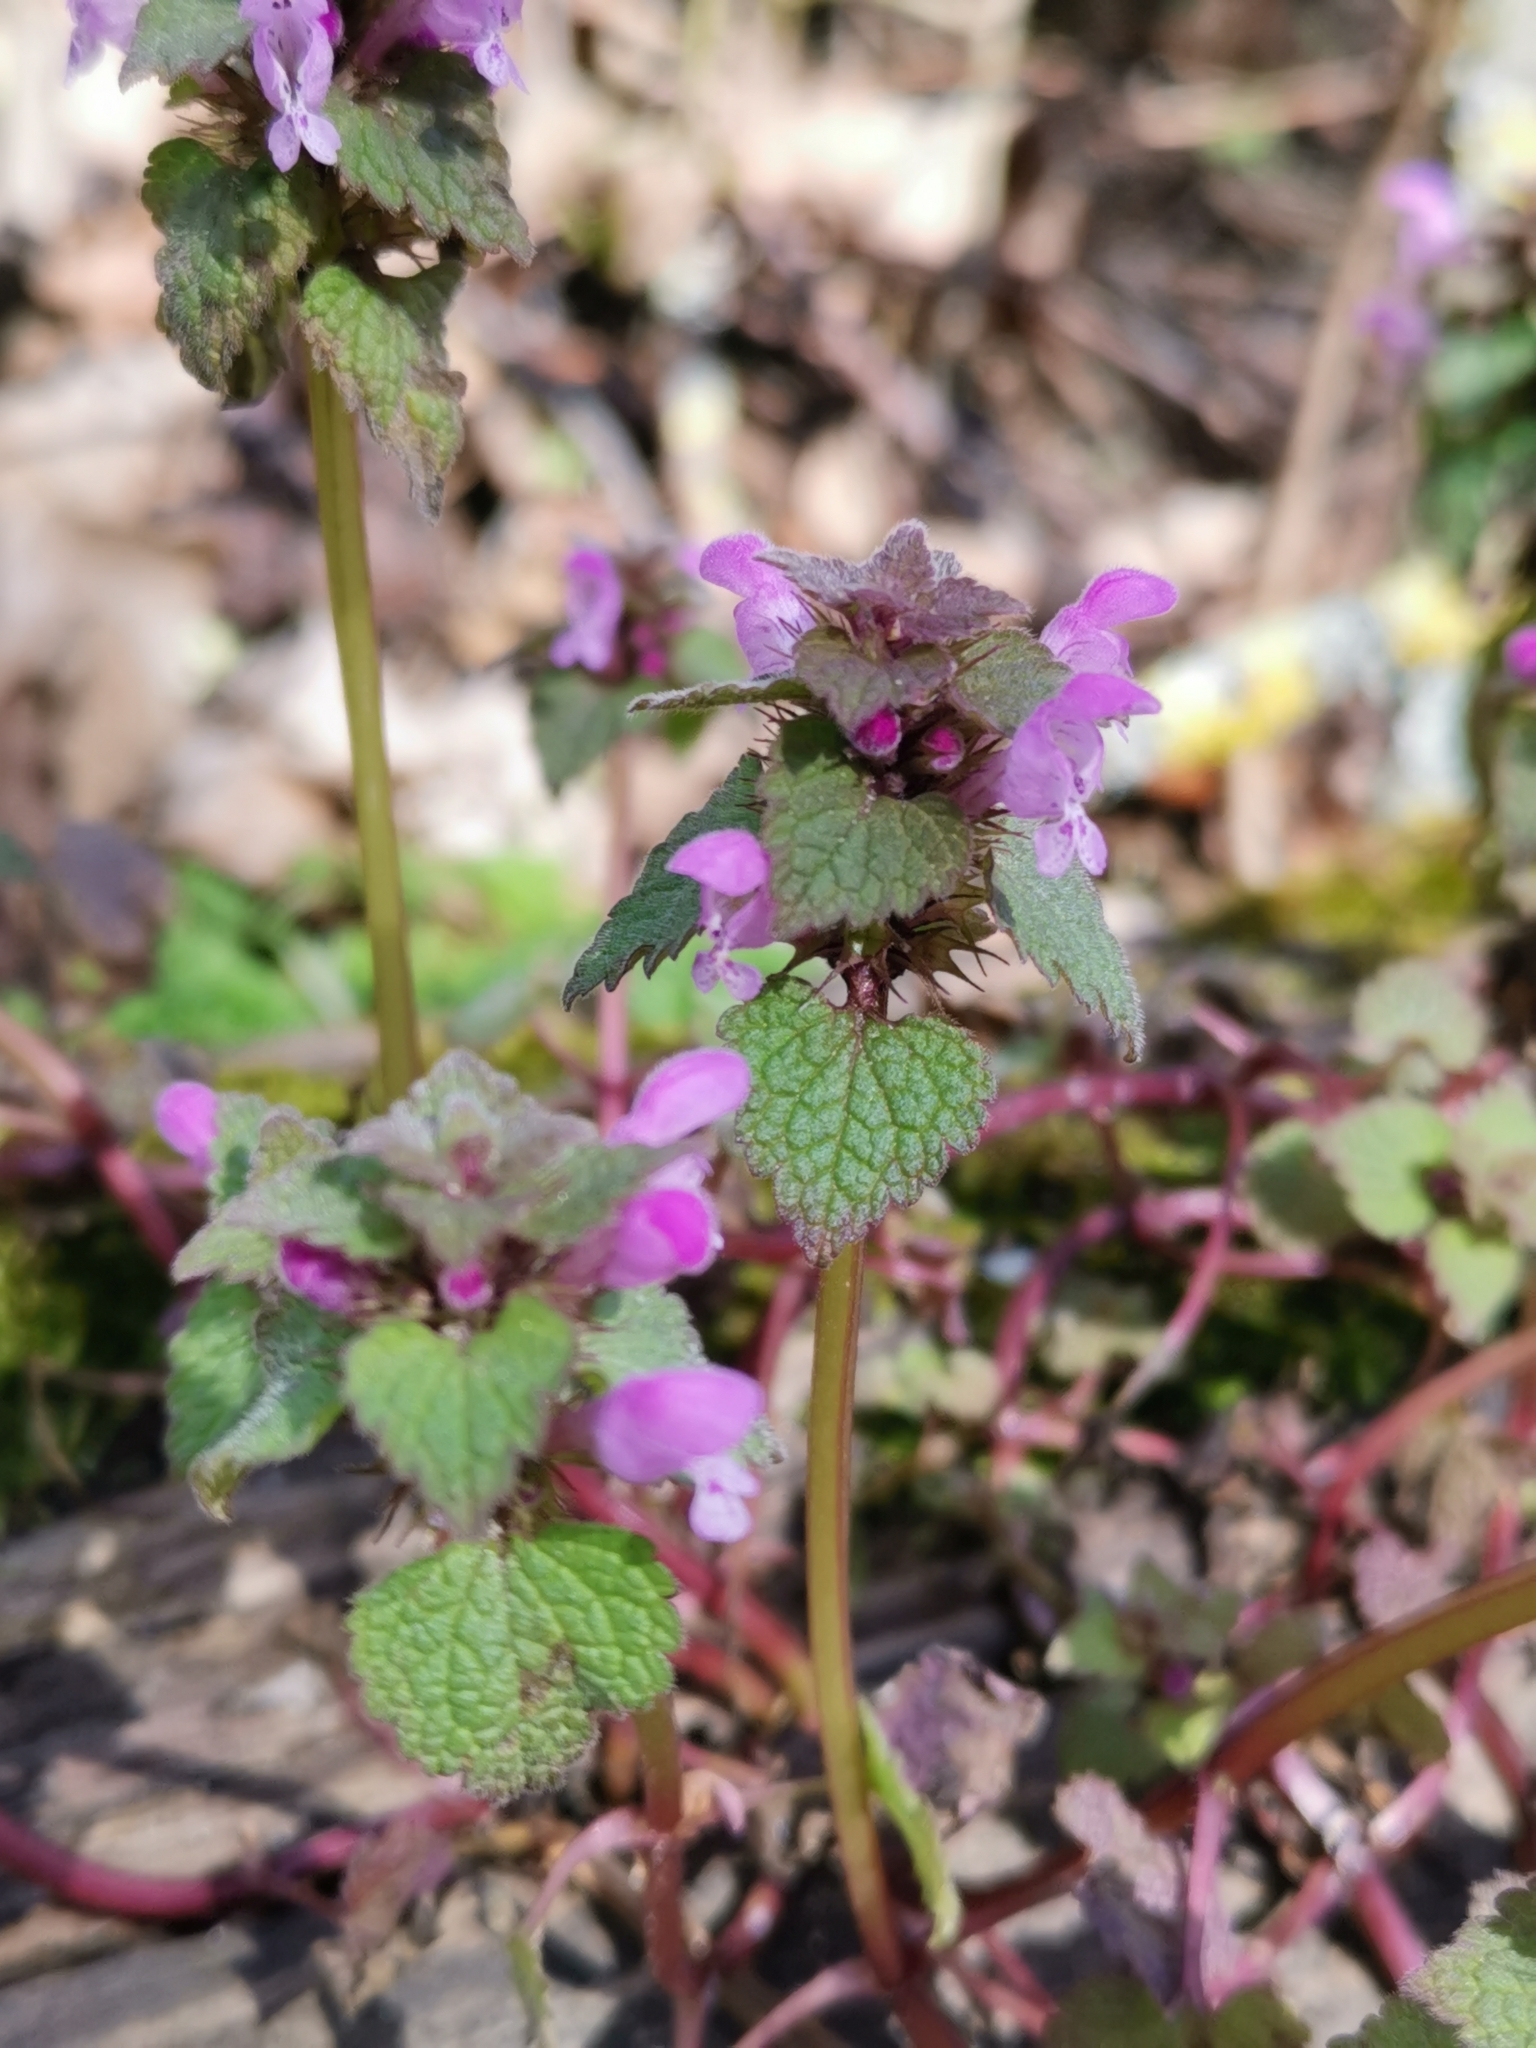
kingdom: Plantae
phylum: Tracheophyta
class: Magnoliopsida
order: Lamiales
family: Lamiaceae
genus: Lamium
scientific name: Lamium purpureum
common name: Red dead-nettle
